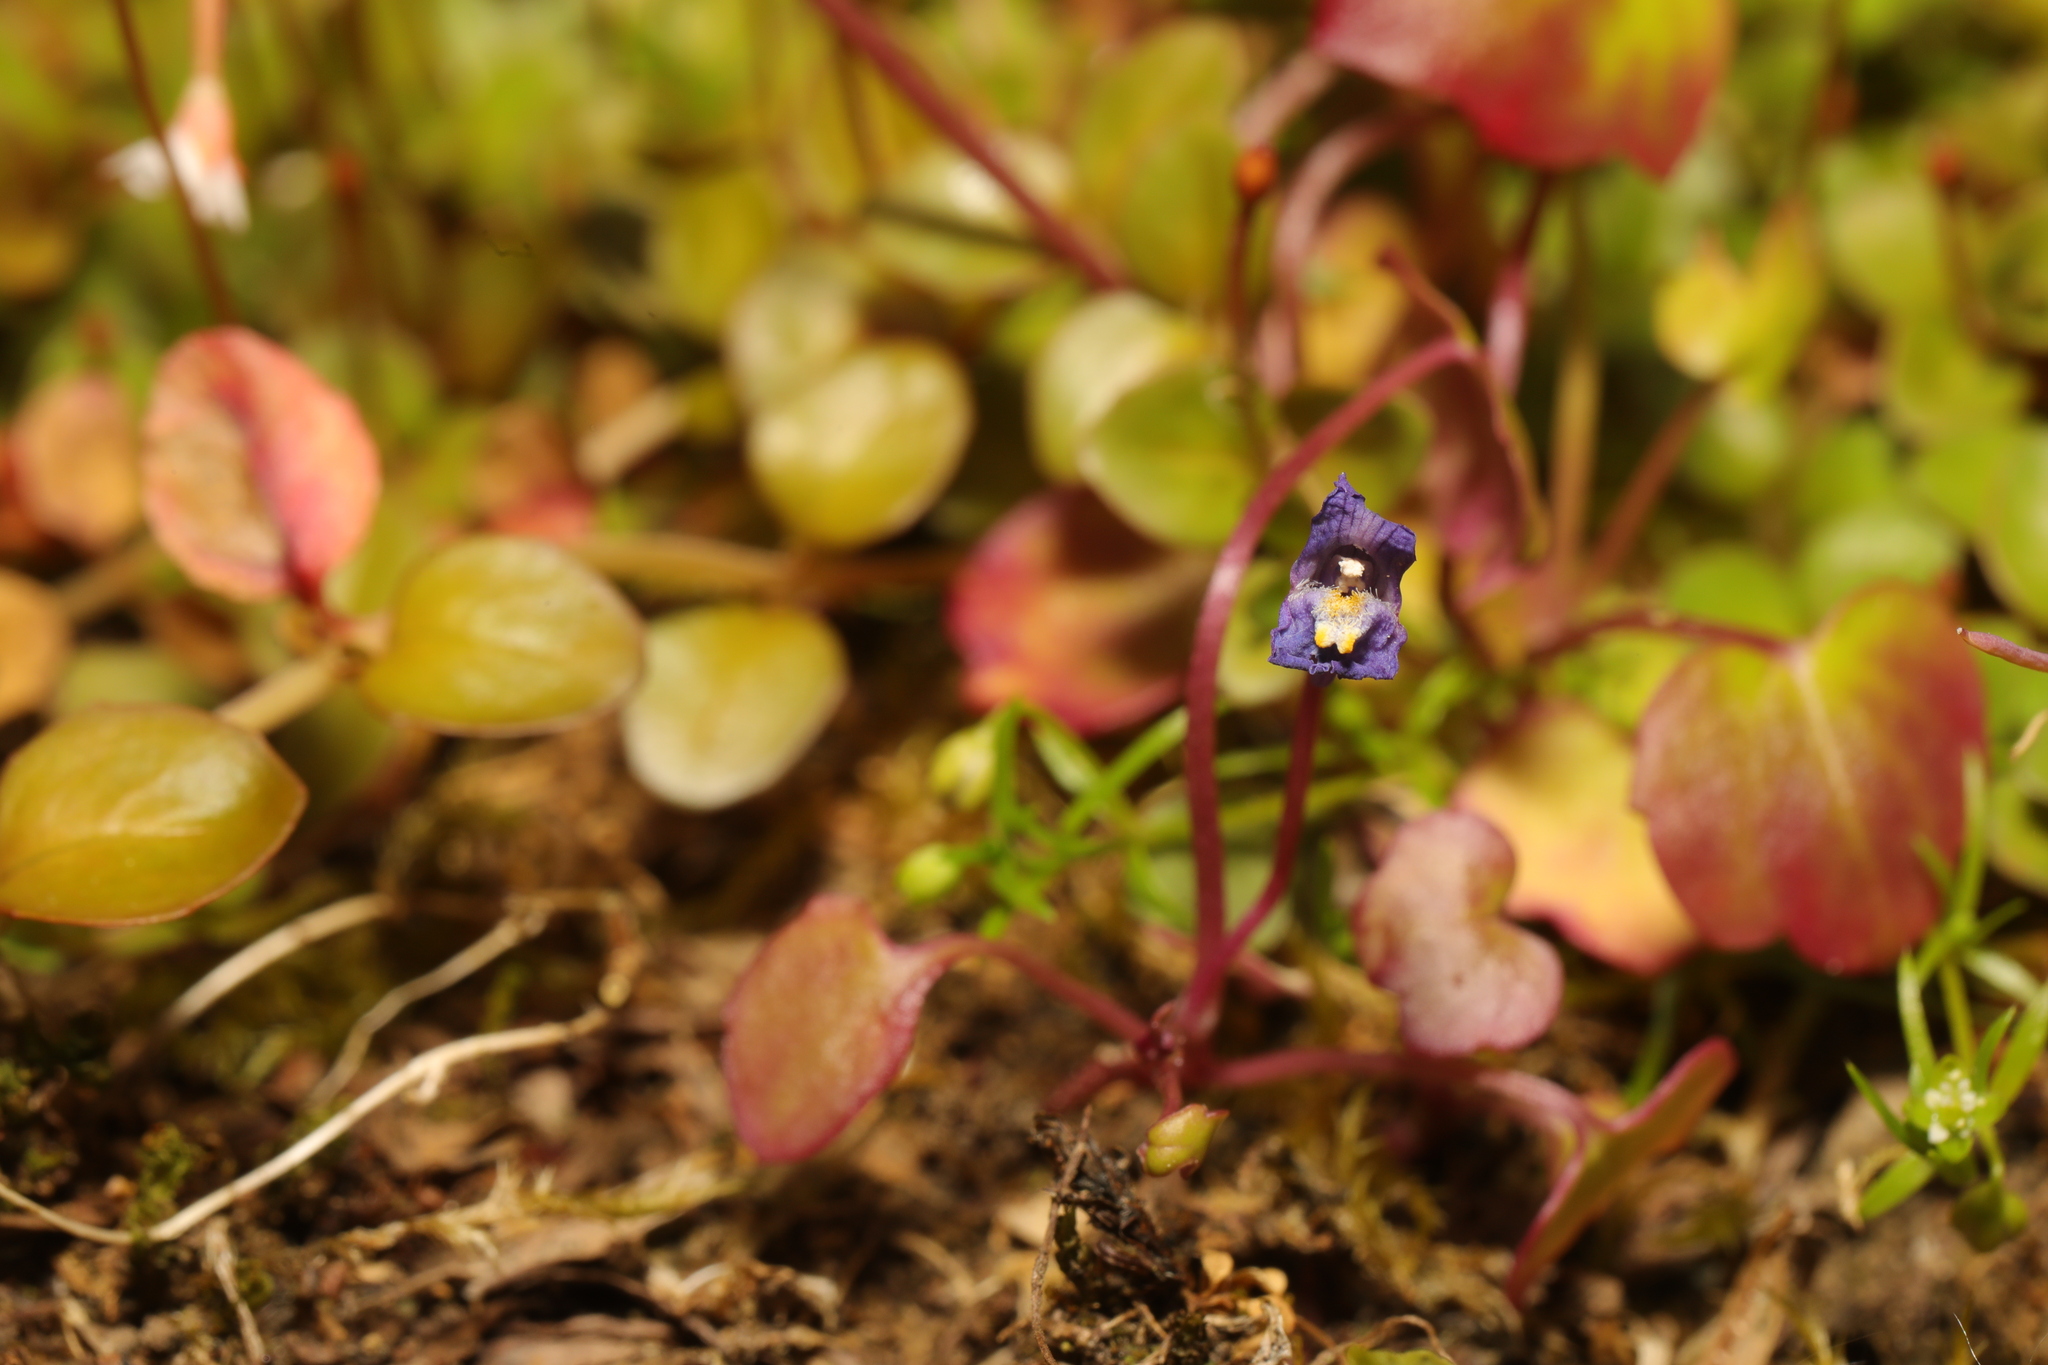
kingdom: Plantae
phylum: Tracheophyta
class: Magnoliopsida
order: Myrtales
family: Onagraceae
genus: Epilobium
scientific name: Epilobium brunnescens
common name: New zealand willowherb
